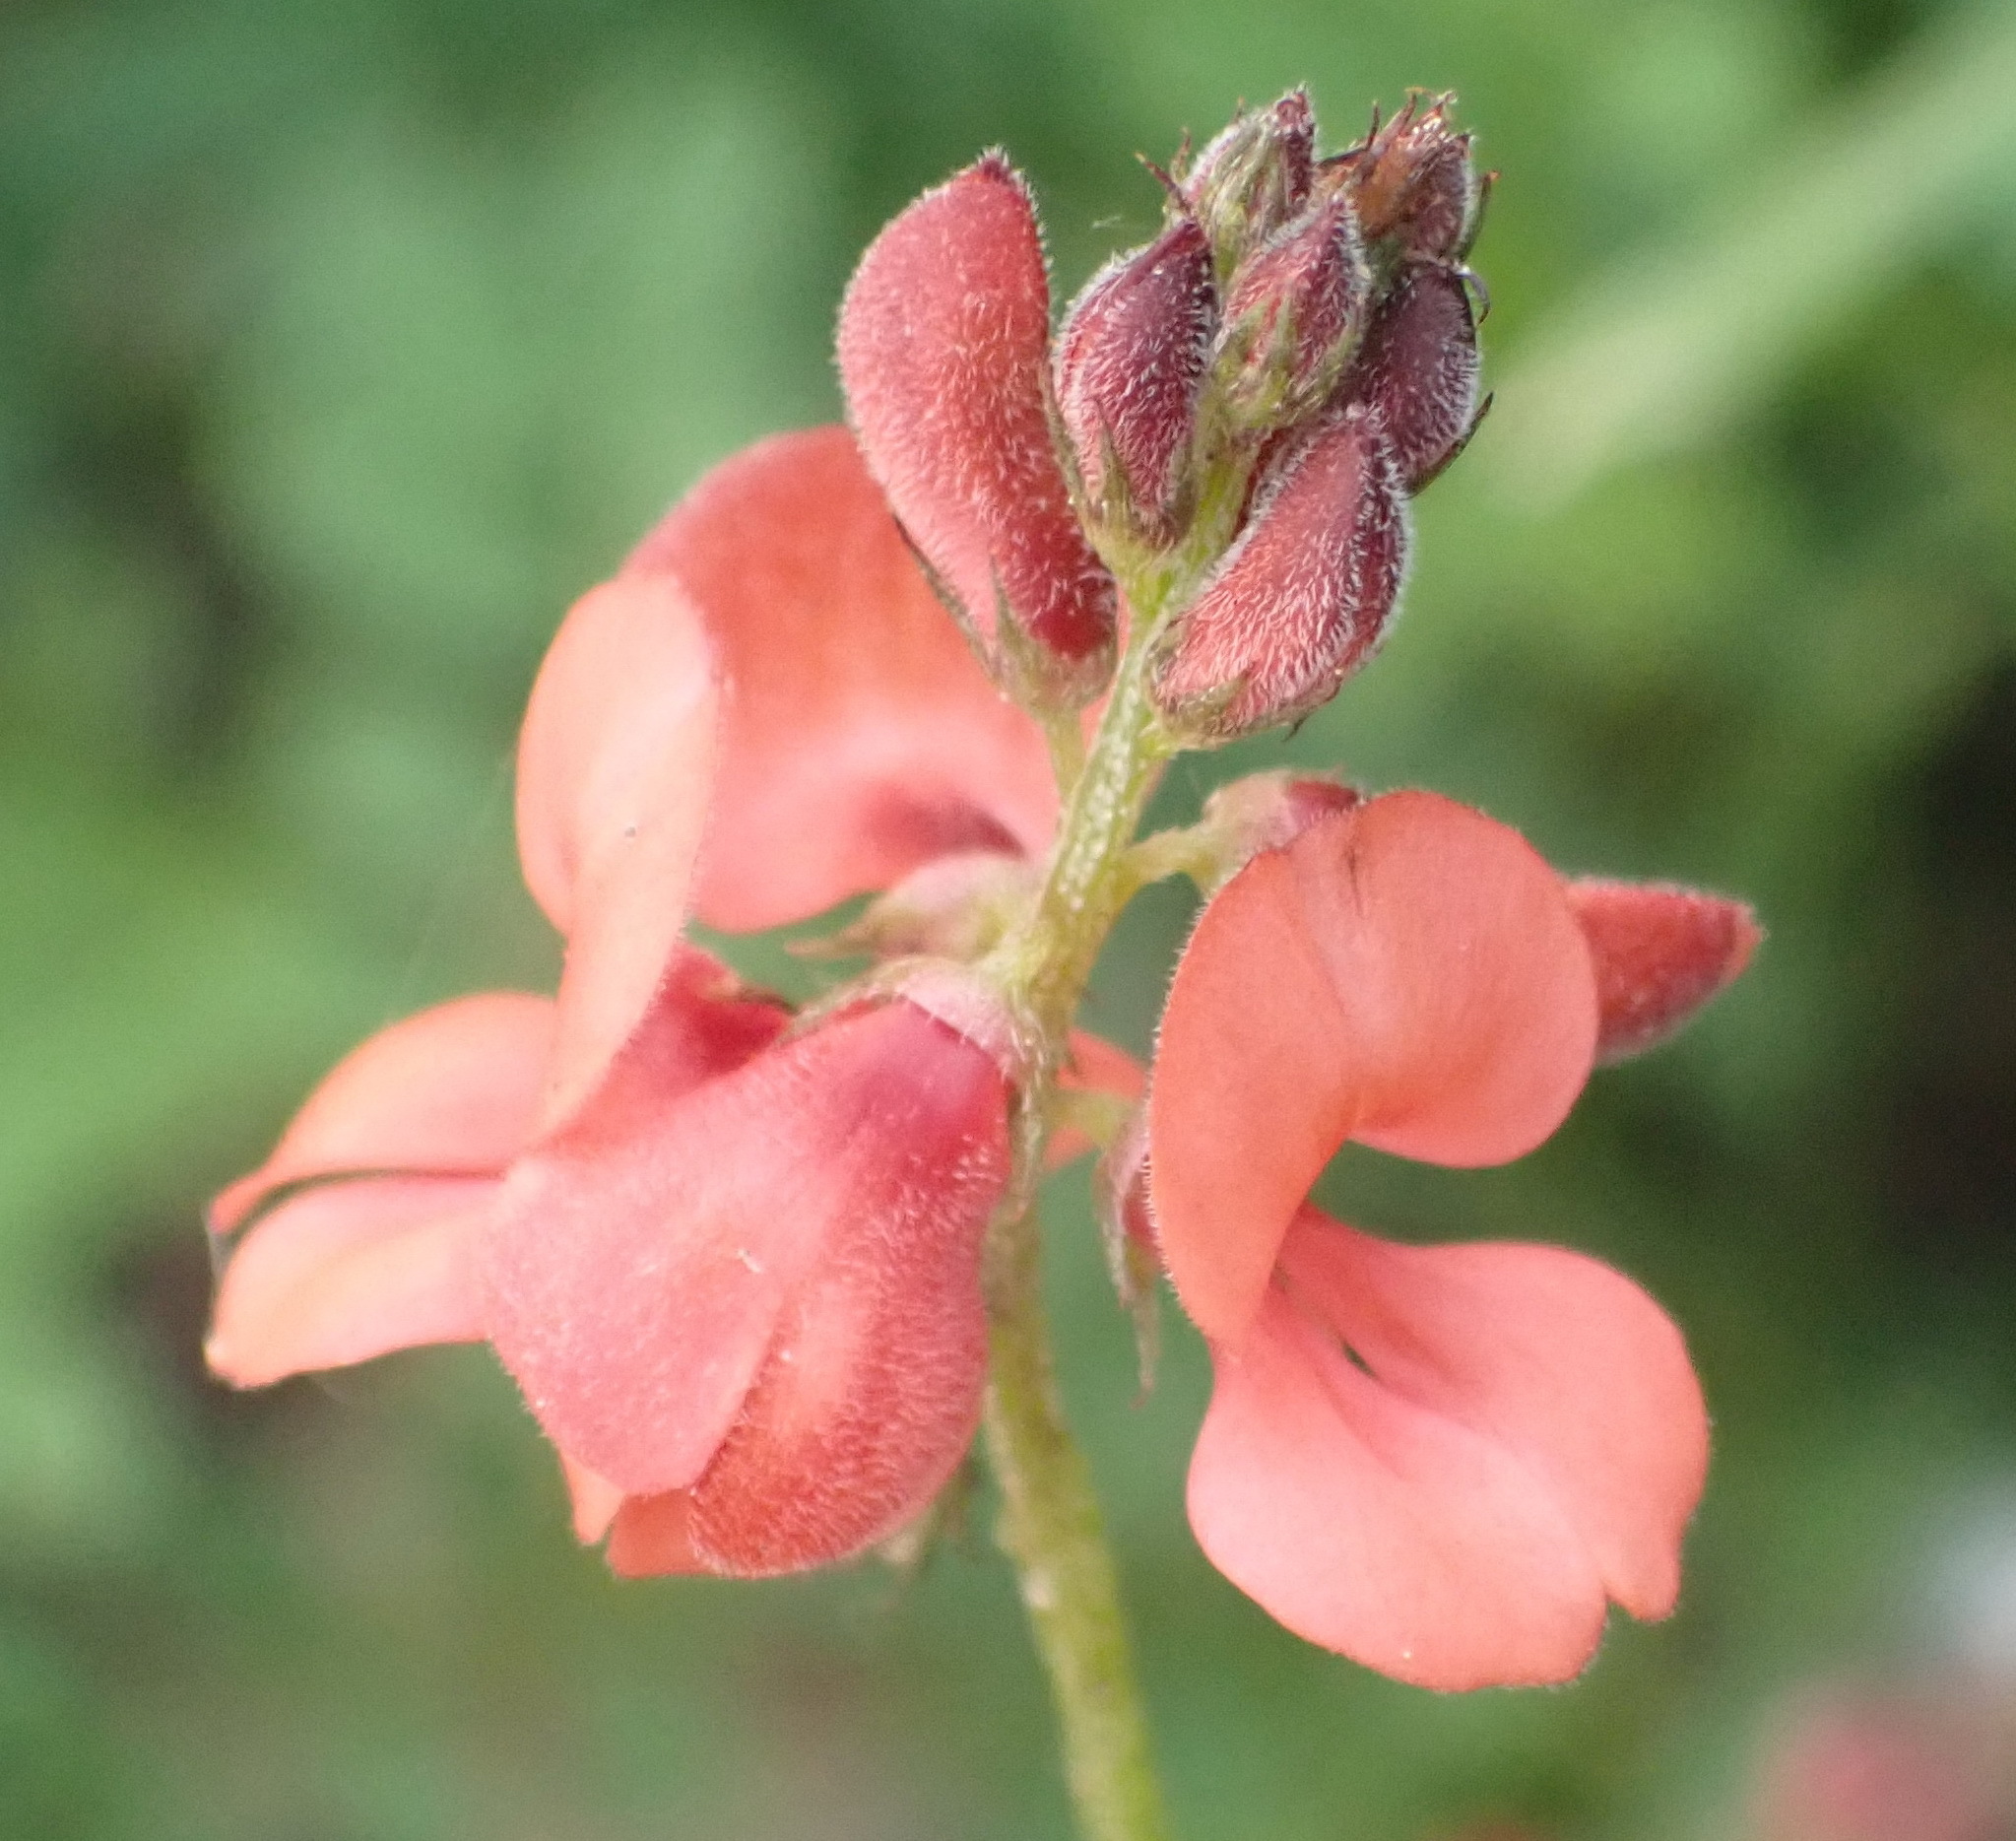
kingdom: Plantae
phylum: Tracheophyta
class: Magnoliopsida
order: Fabales
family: Fabaceae
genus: Indigofera
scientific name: Indigofera erecta
